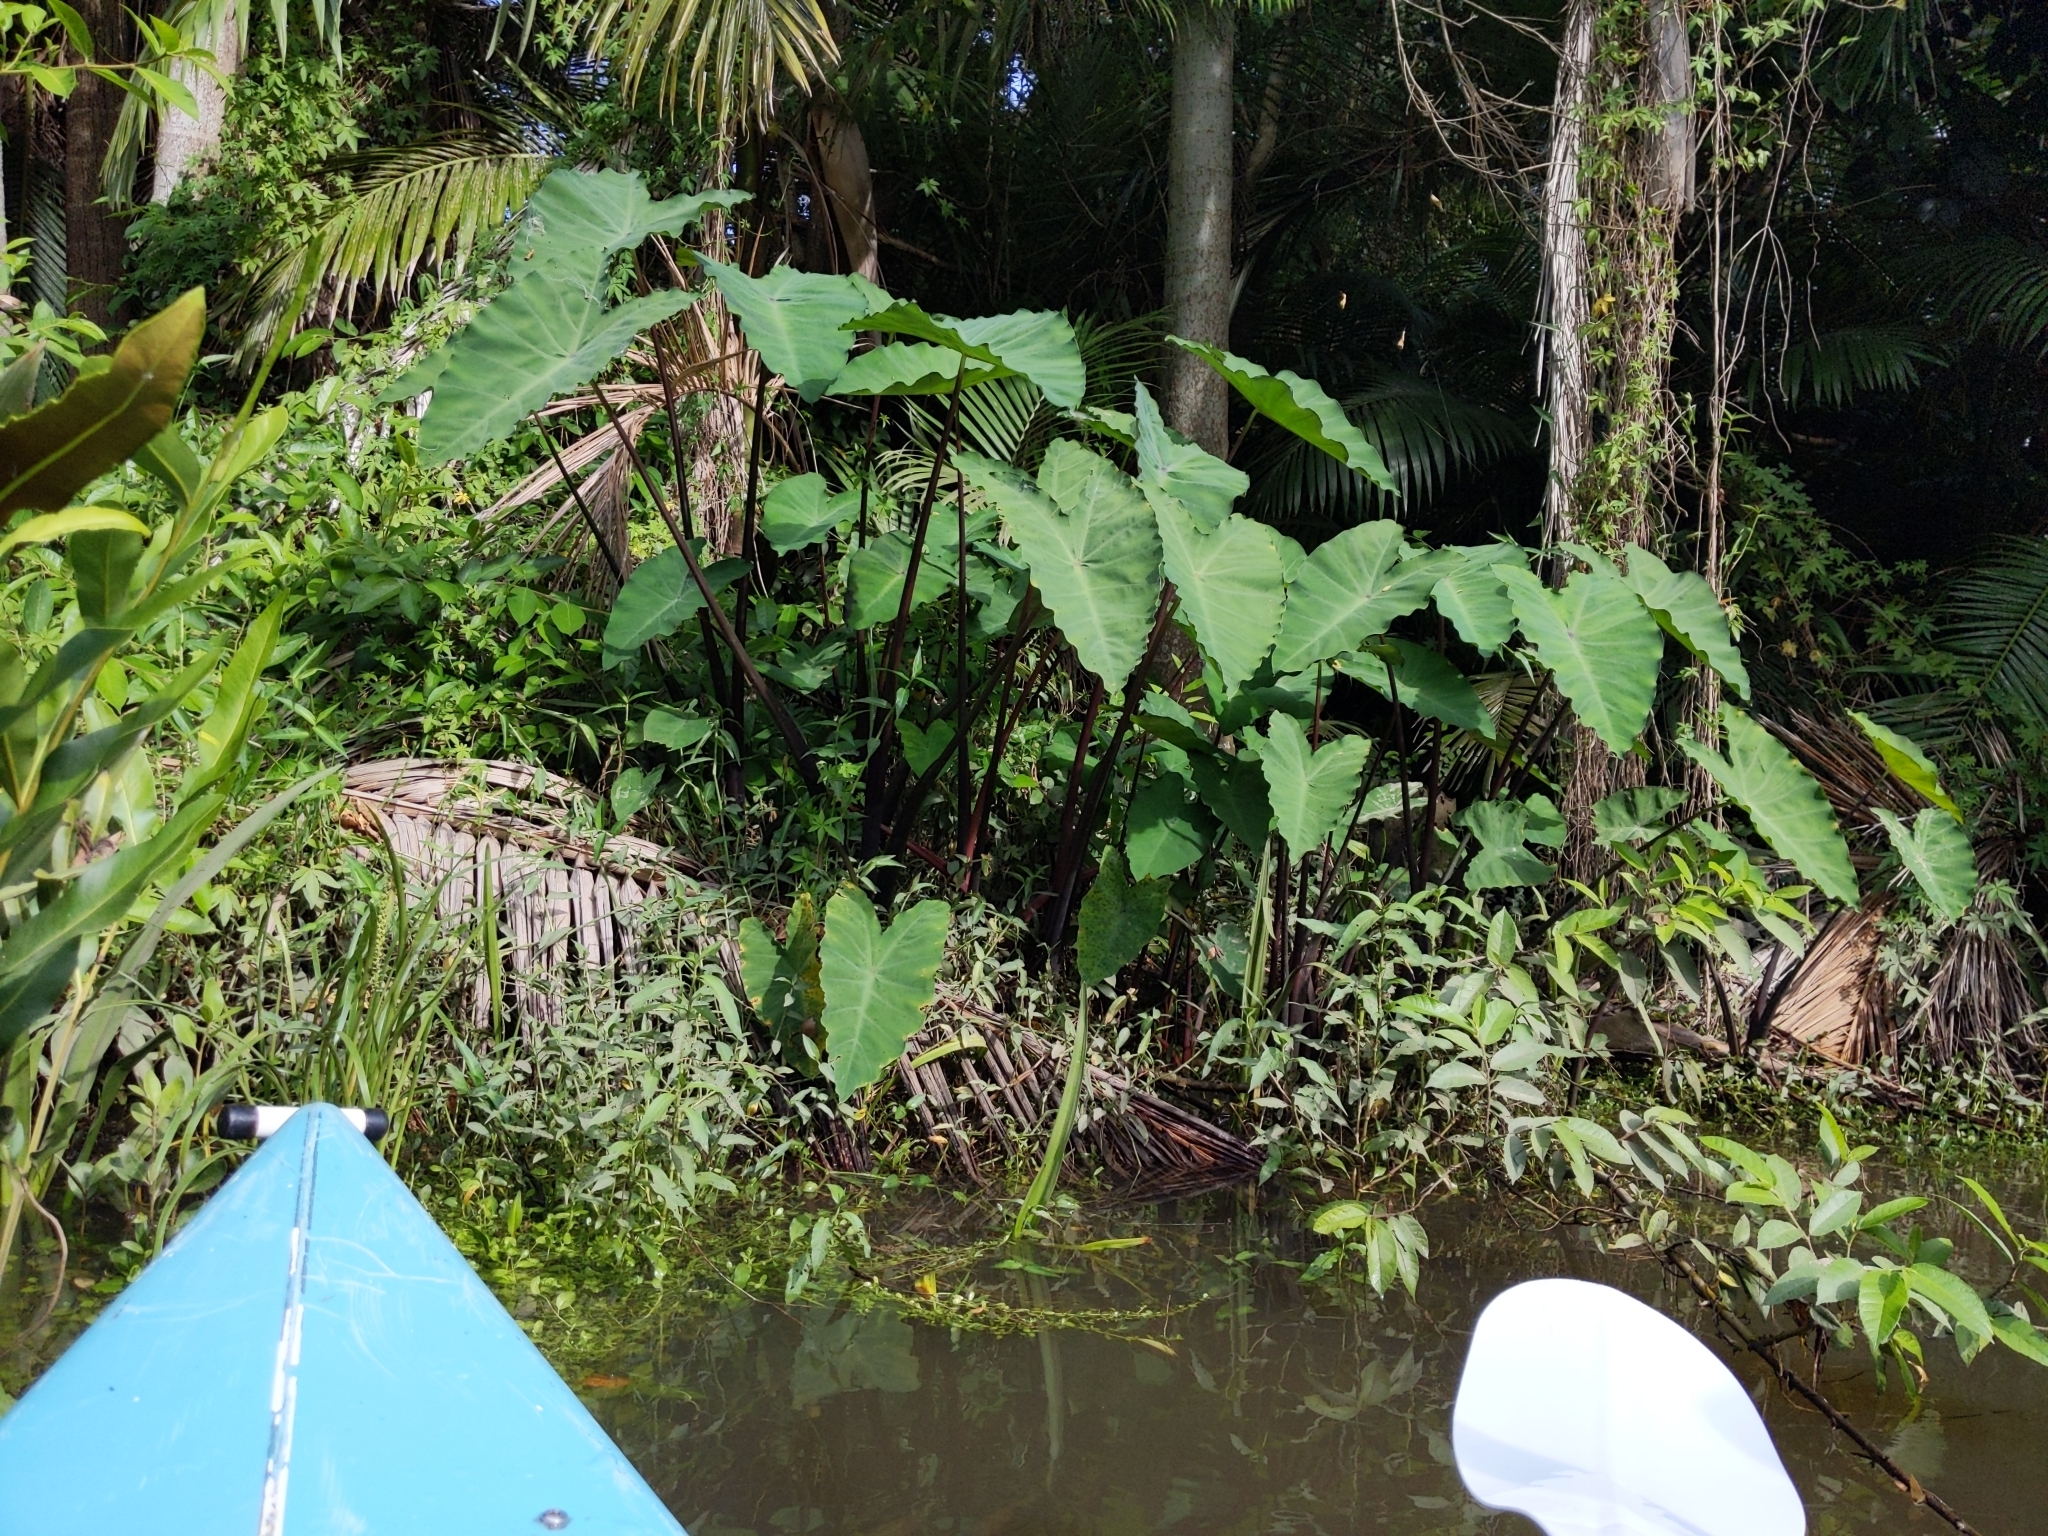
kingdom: Plantae
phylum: Tracheophyta
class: Liliopsida
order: Alismatales
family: Araceae
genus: Colocasia
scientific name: Colocasia esculenta
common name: Taro
